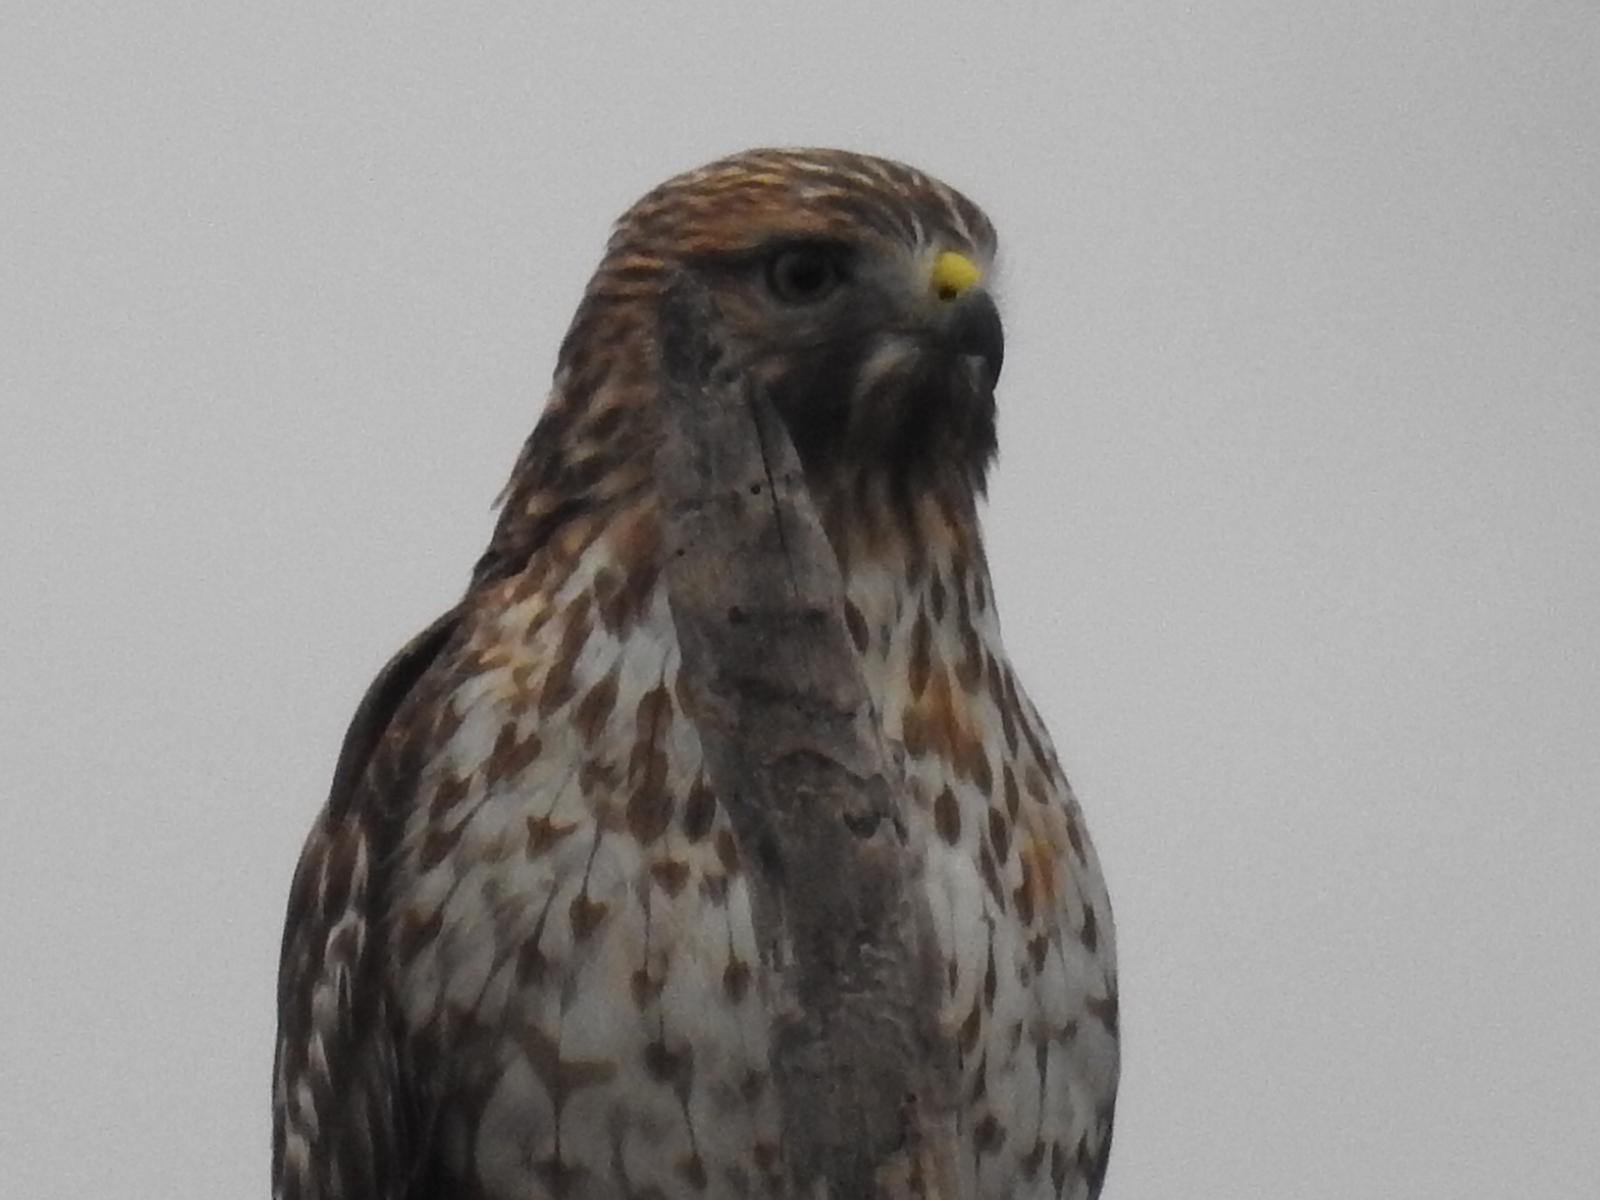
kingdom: Animalia
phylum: Chordata
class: Aves
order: Accipitriformes
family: Accipitridae
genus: Buteo
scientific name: Buteo lineatus
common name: Red-shouldered hawk
